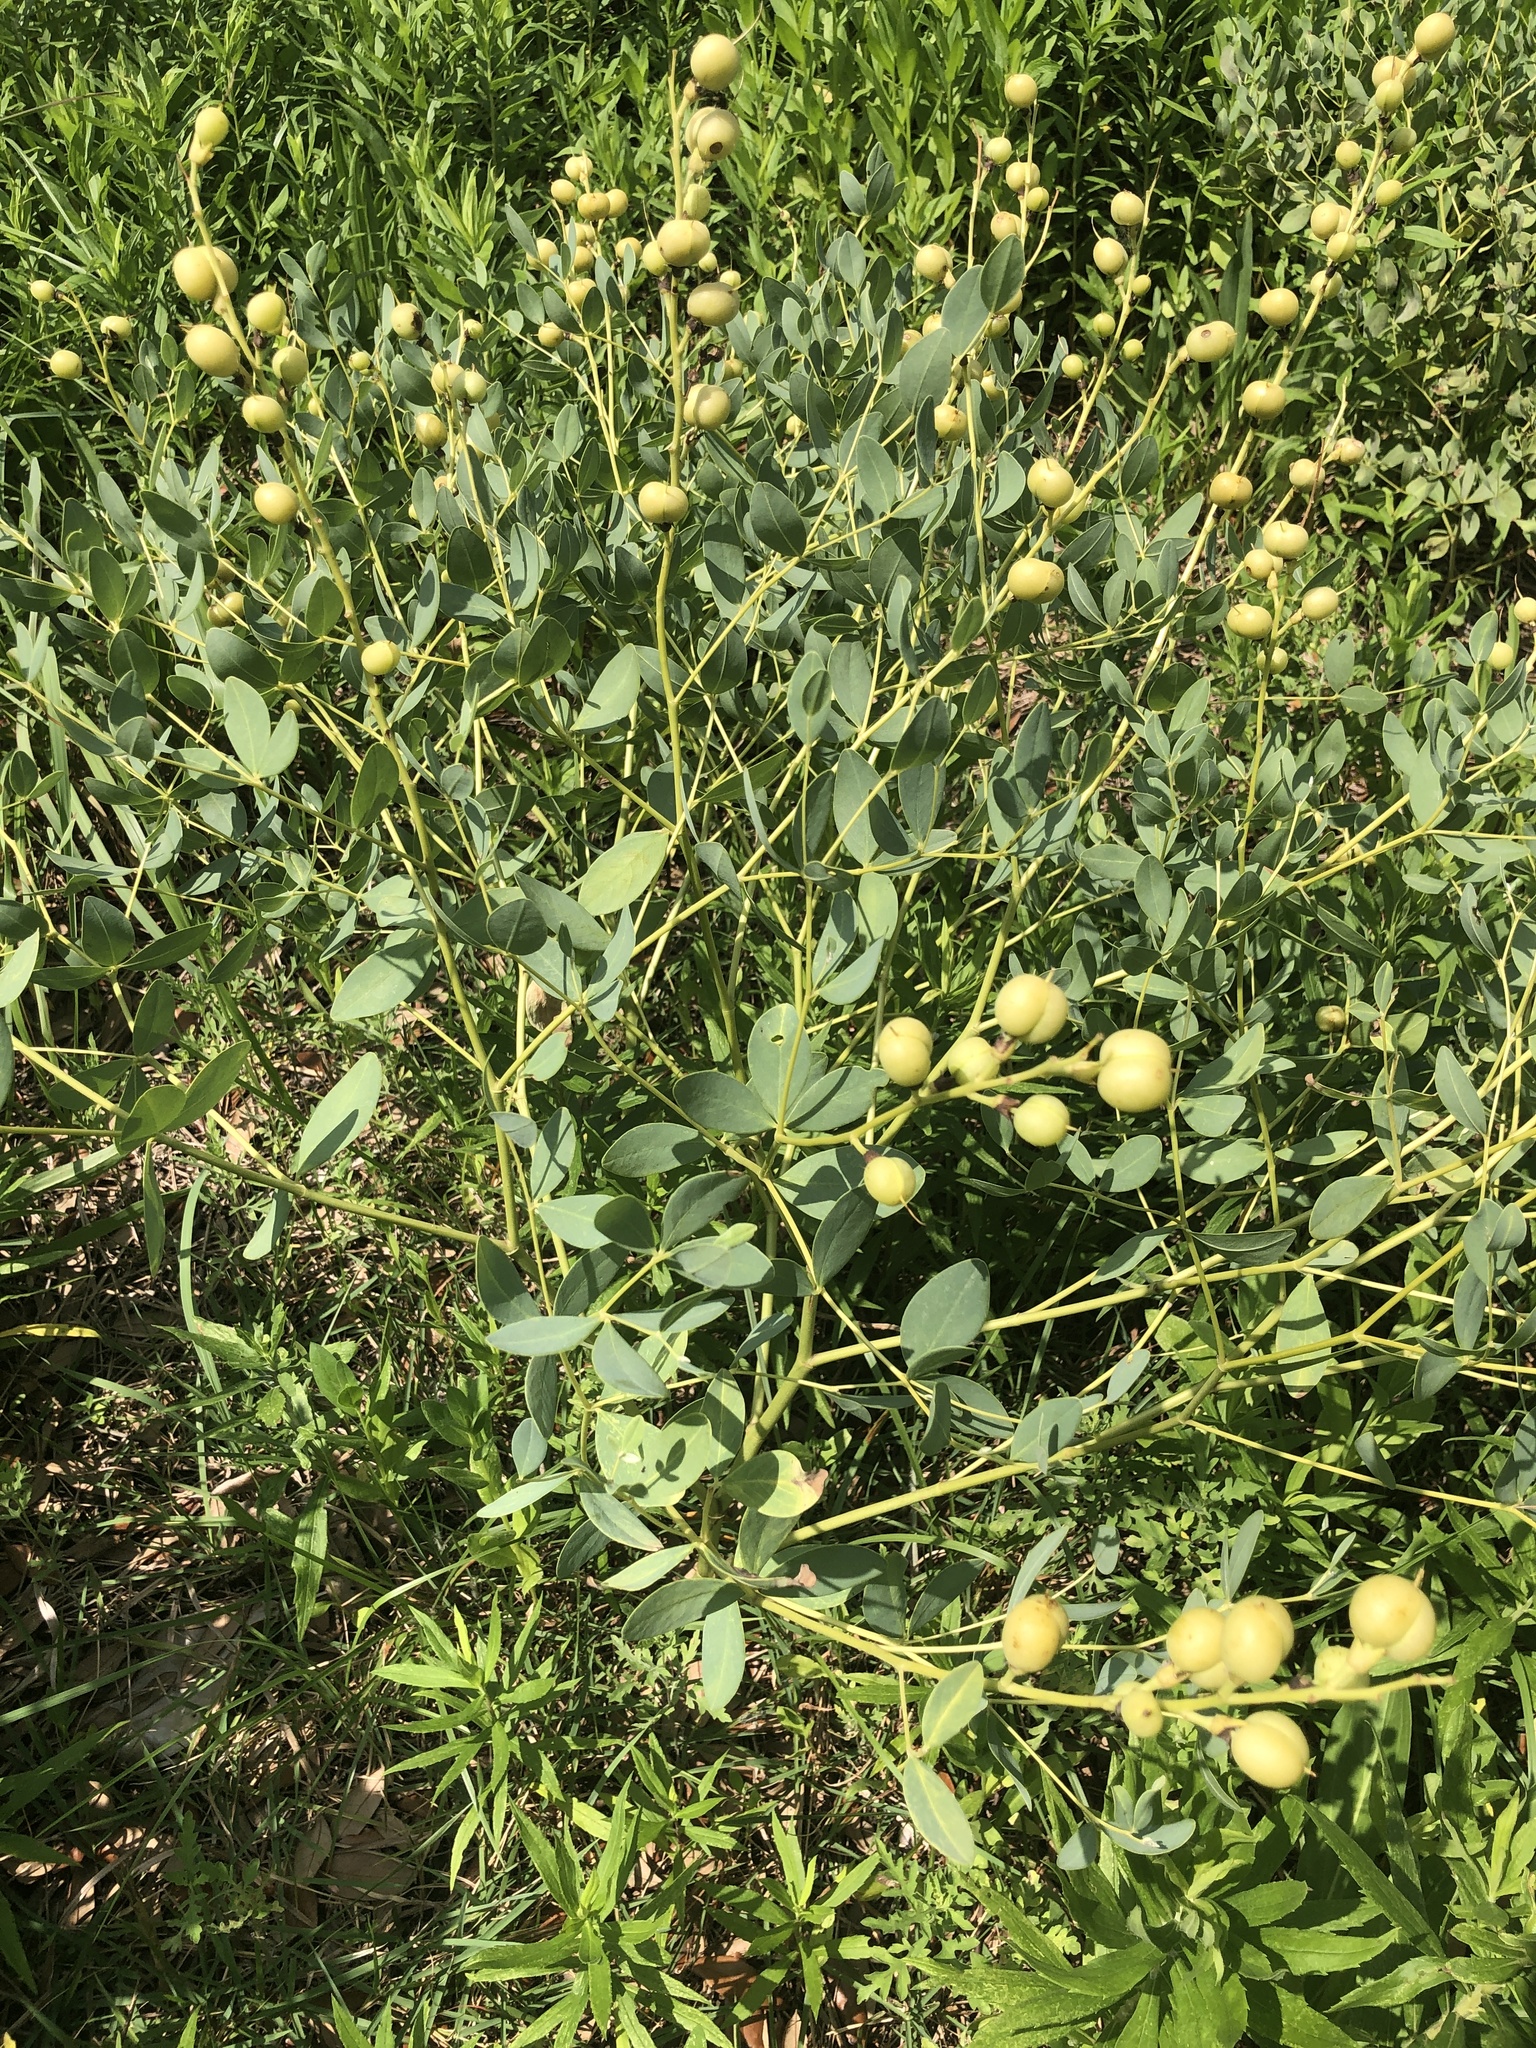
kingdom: Plantae
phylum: Tracheophyta
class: Magnoliopsida
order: Fabales
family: Fabaceae
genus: Baptisia
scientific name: Baptisia sphaerocarpa
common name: Round wild indigo
